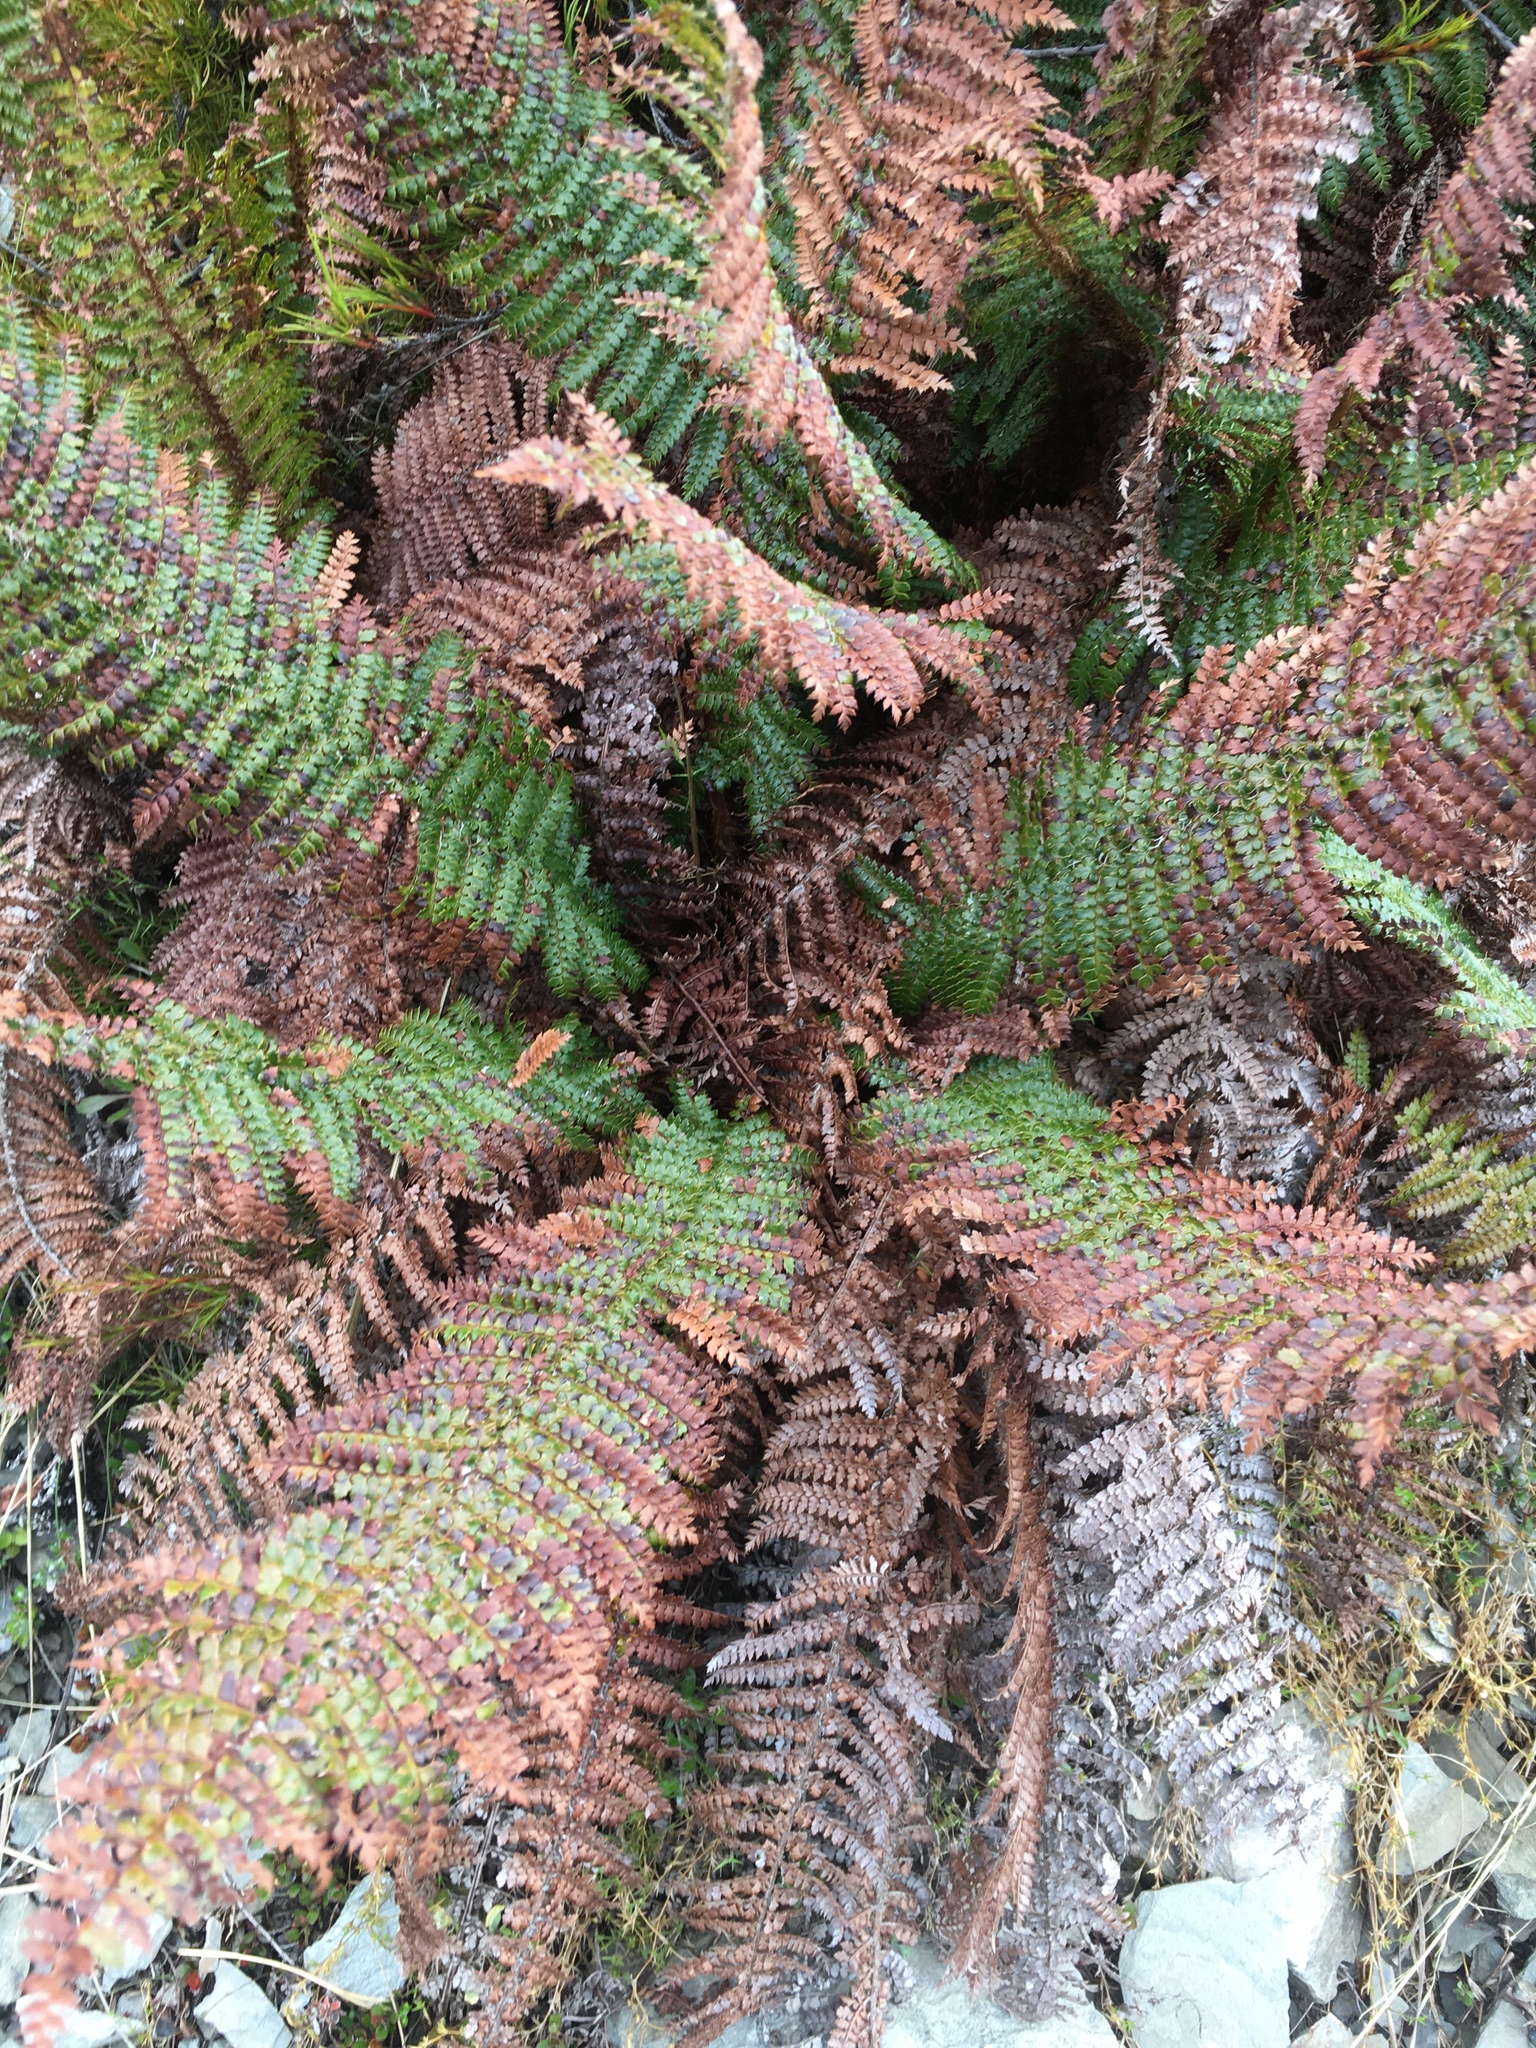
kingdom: Plantae
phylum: Tracheophyta
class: Polypodiopsida
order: Polypodiales
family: Dryopteridaceae
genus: Polystichum
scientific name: Polystichum vestitum
